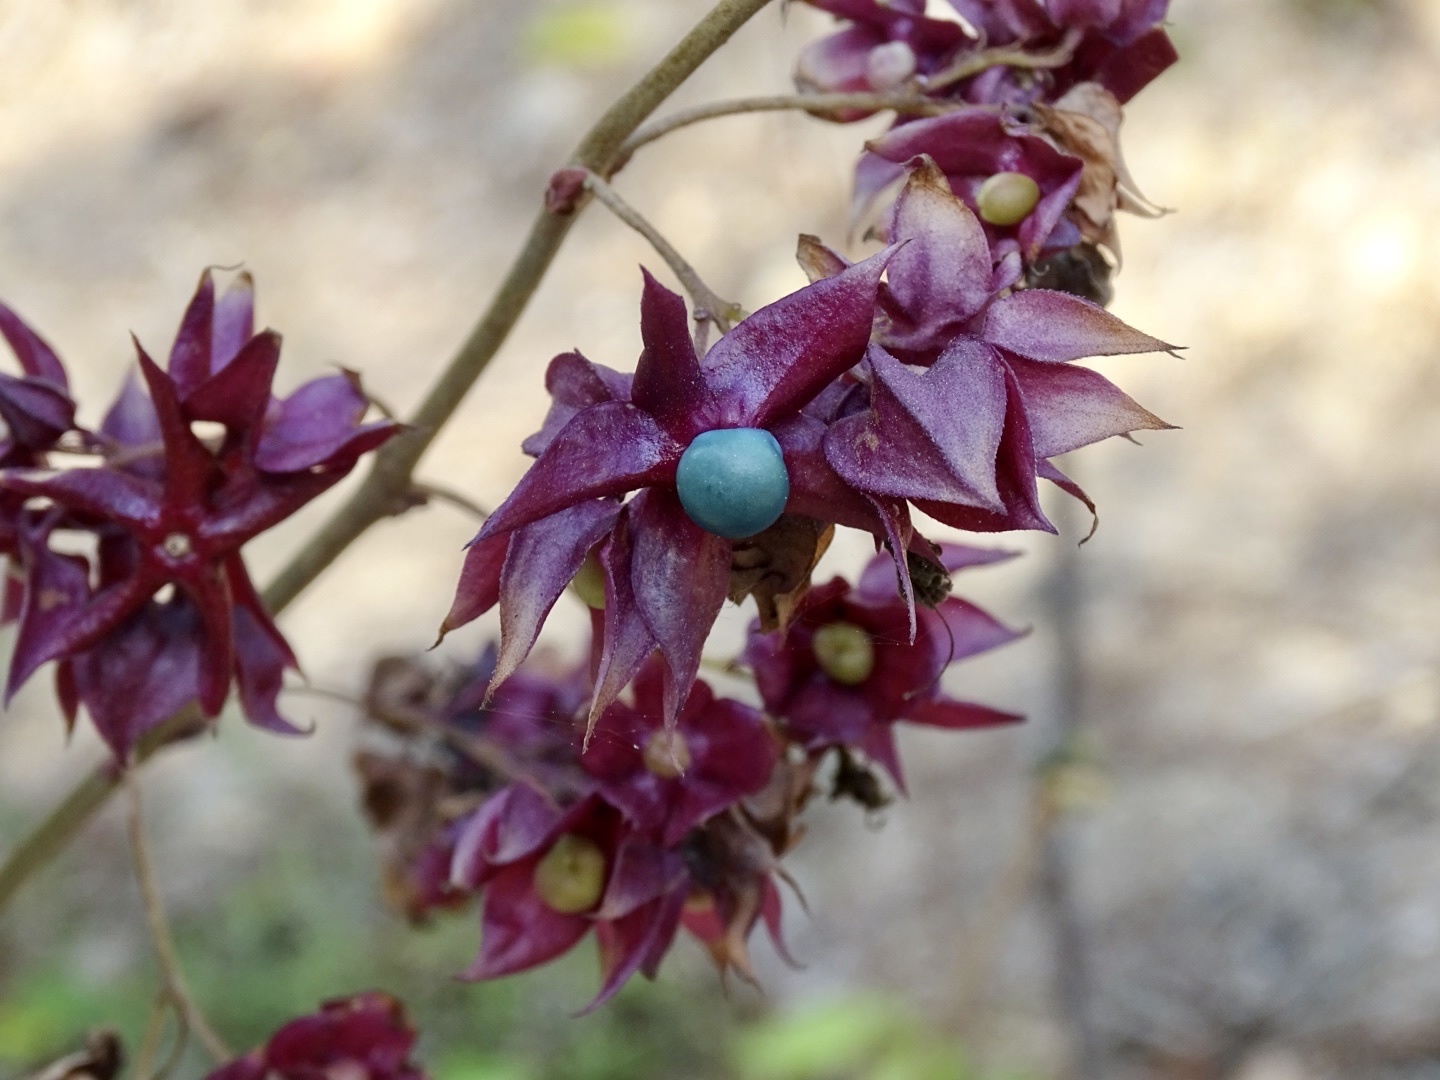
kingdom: Plantae
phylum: Tracheophyta
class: Magnoliopsida
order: Lamiales
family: Lamiaceae
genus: Clerodendrum
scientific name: Clerodendrum fortunatum
